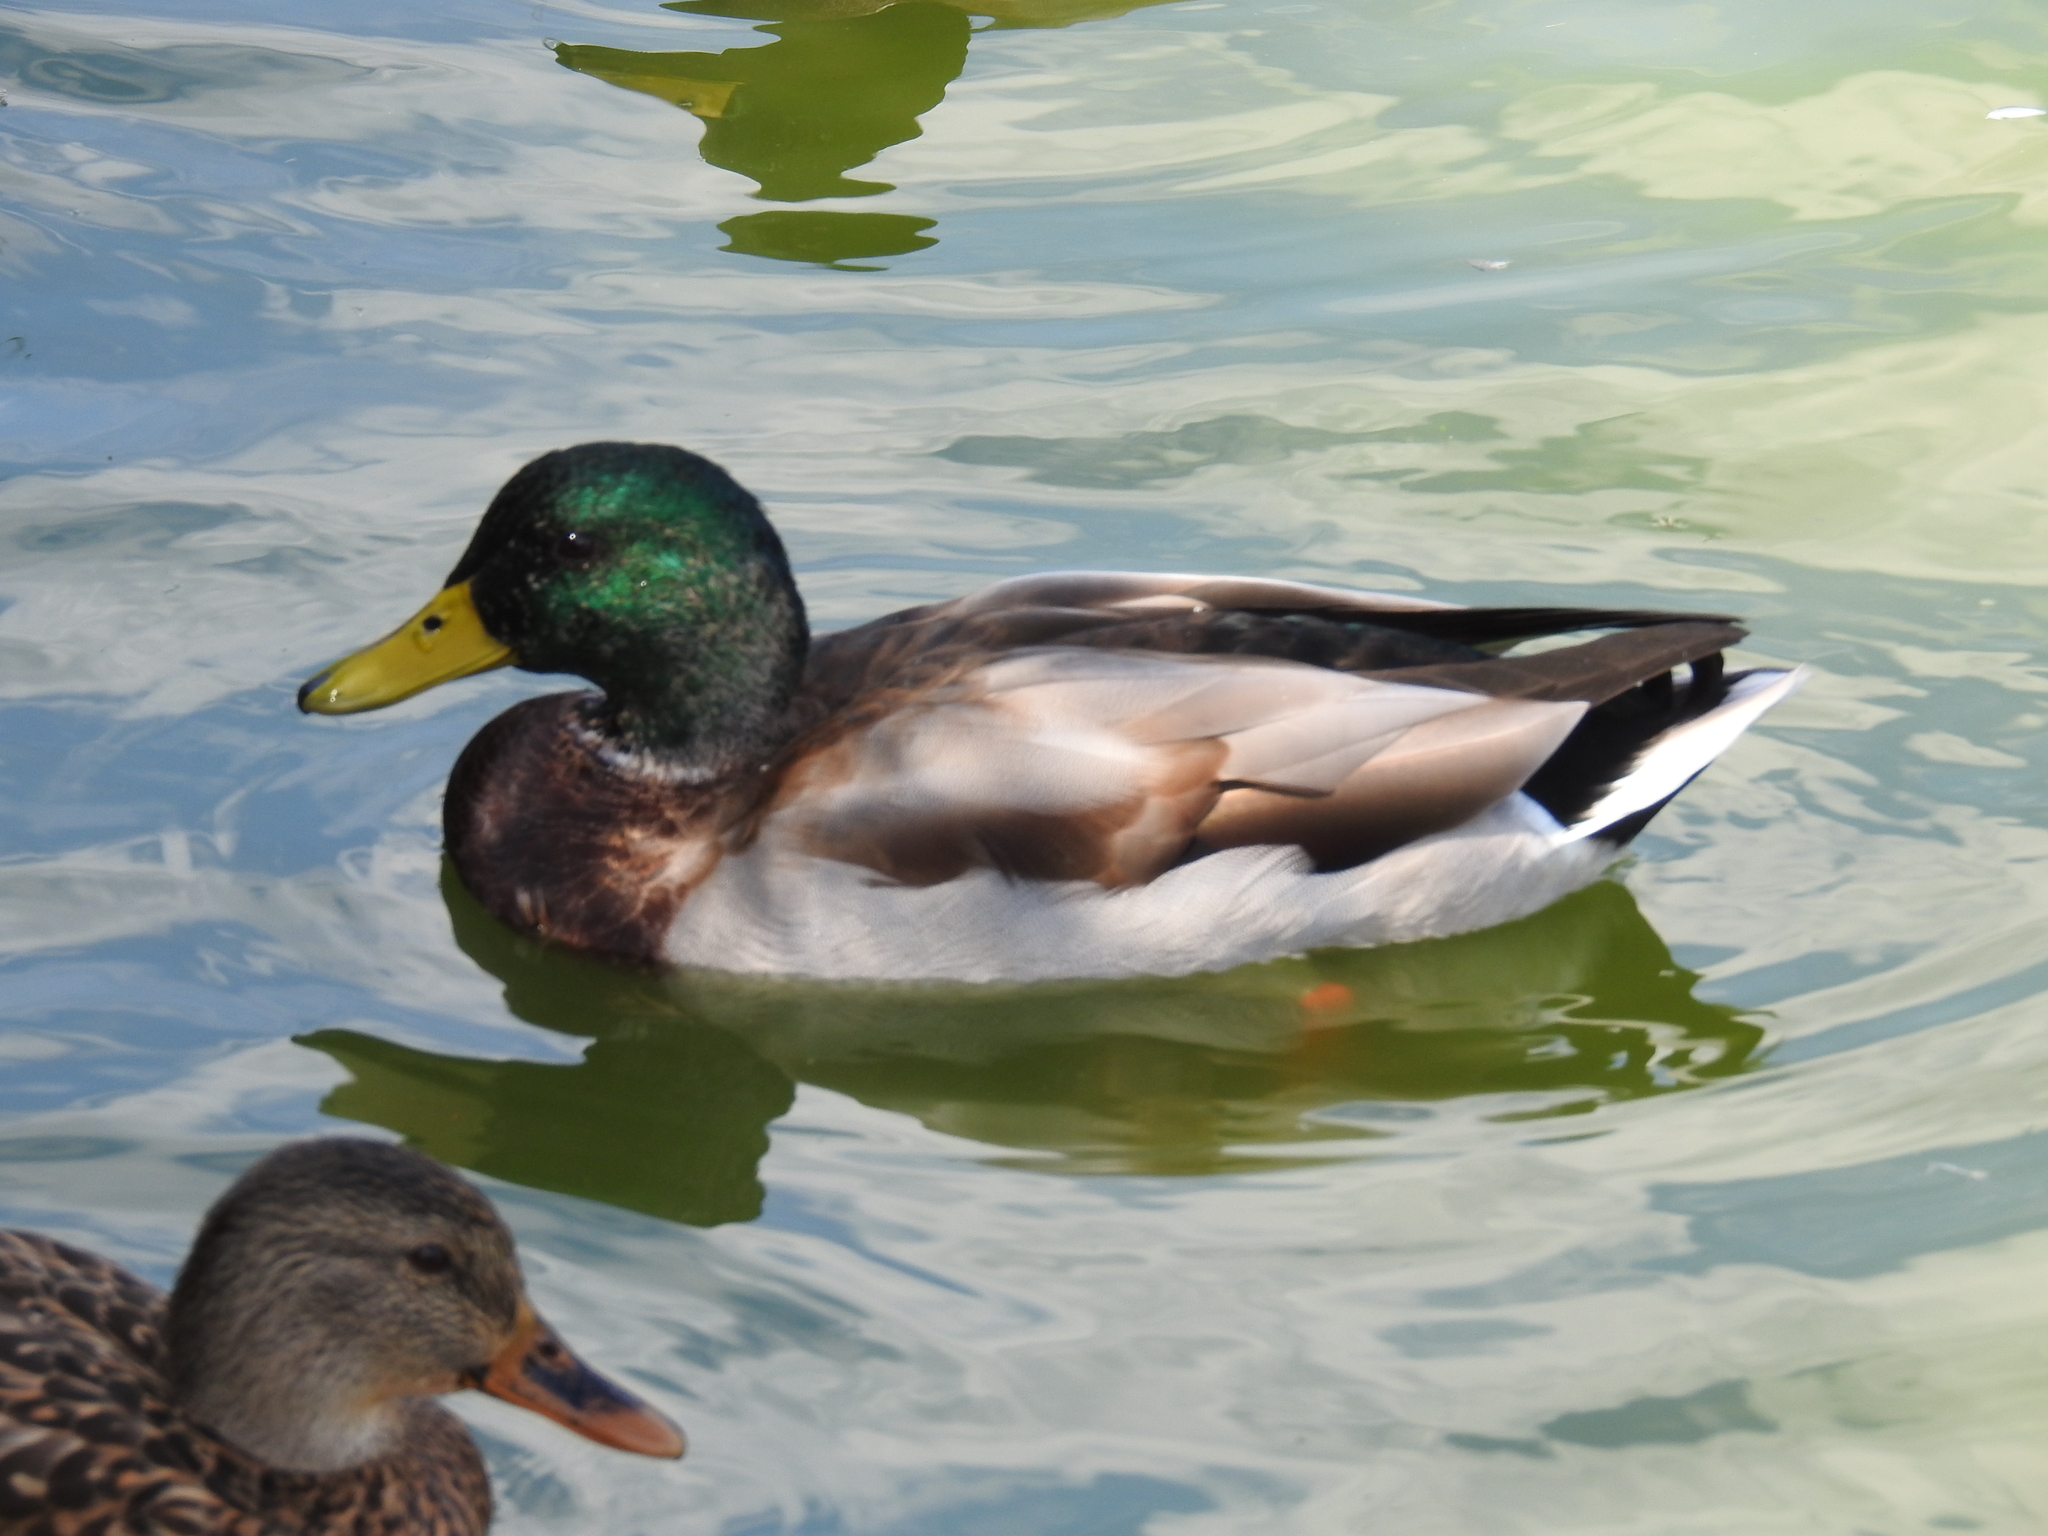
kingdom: Animalia
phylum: Chordata
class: Aves
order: Anseriformes
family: Anatidae
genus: Anas
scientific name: Anas platyrhynchos
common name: Mallard
